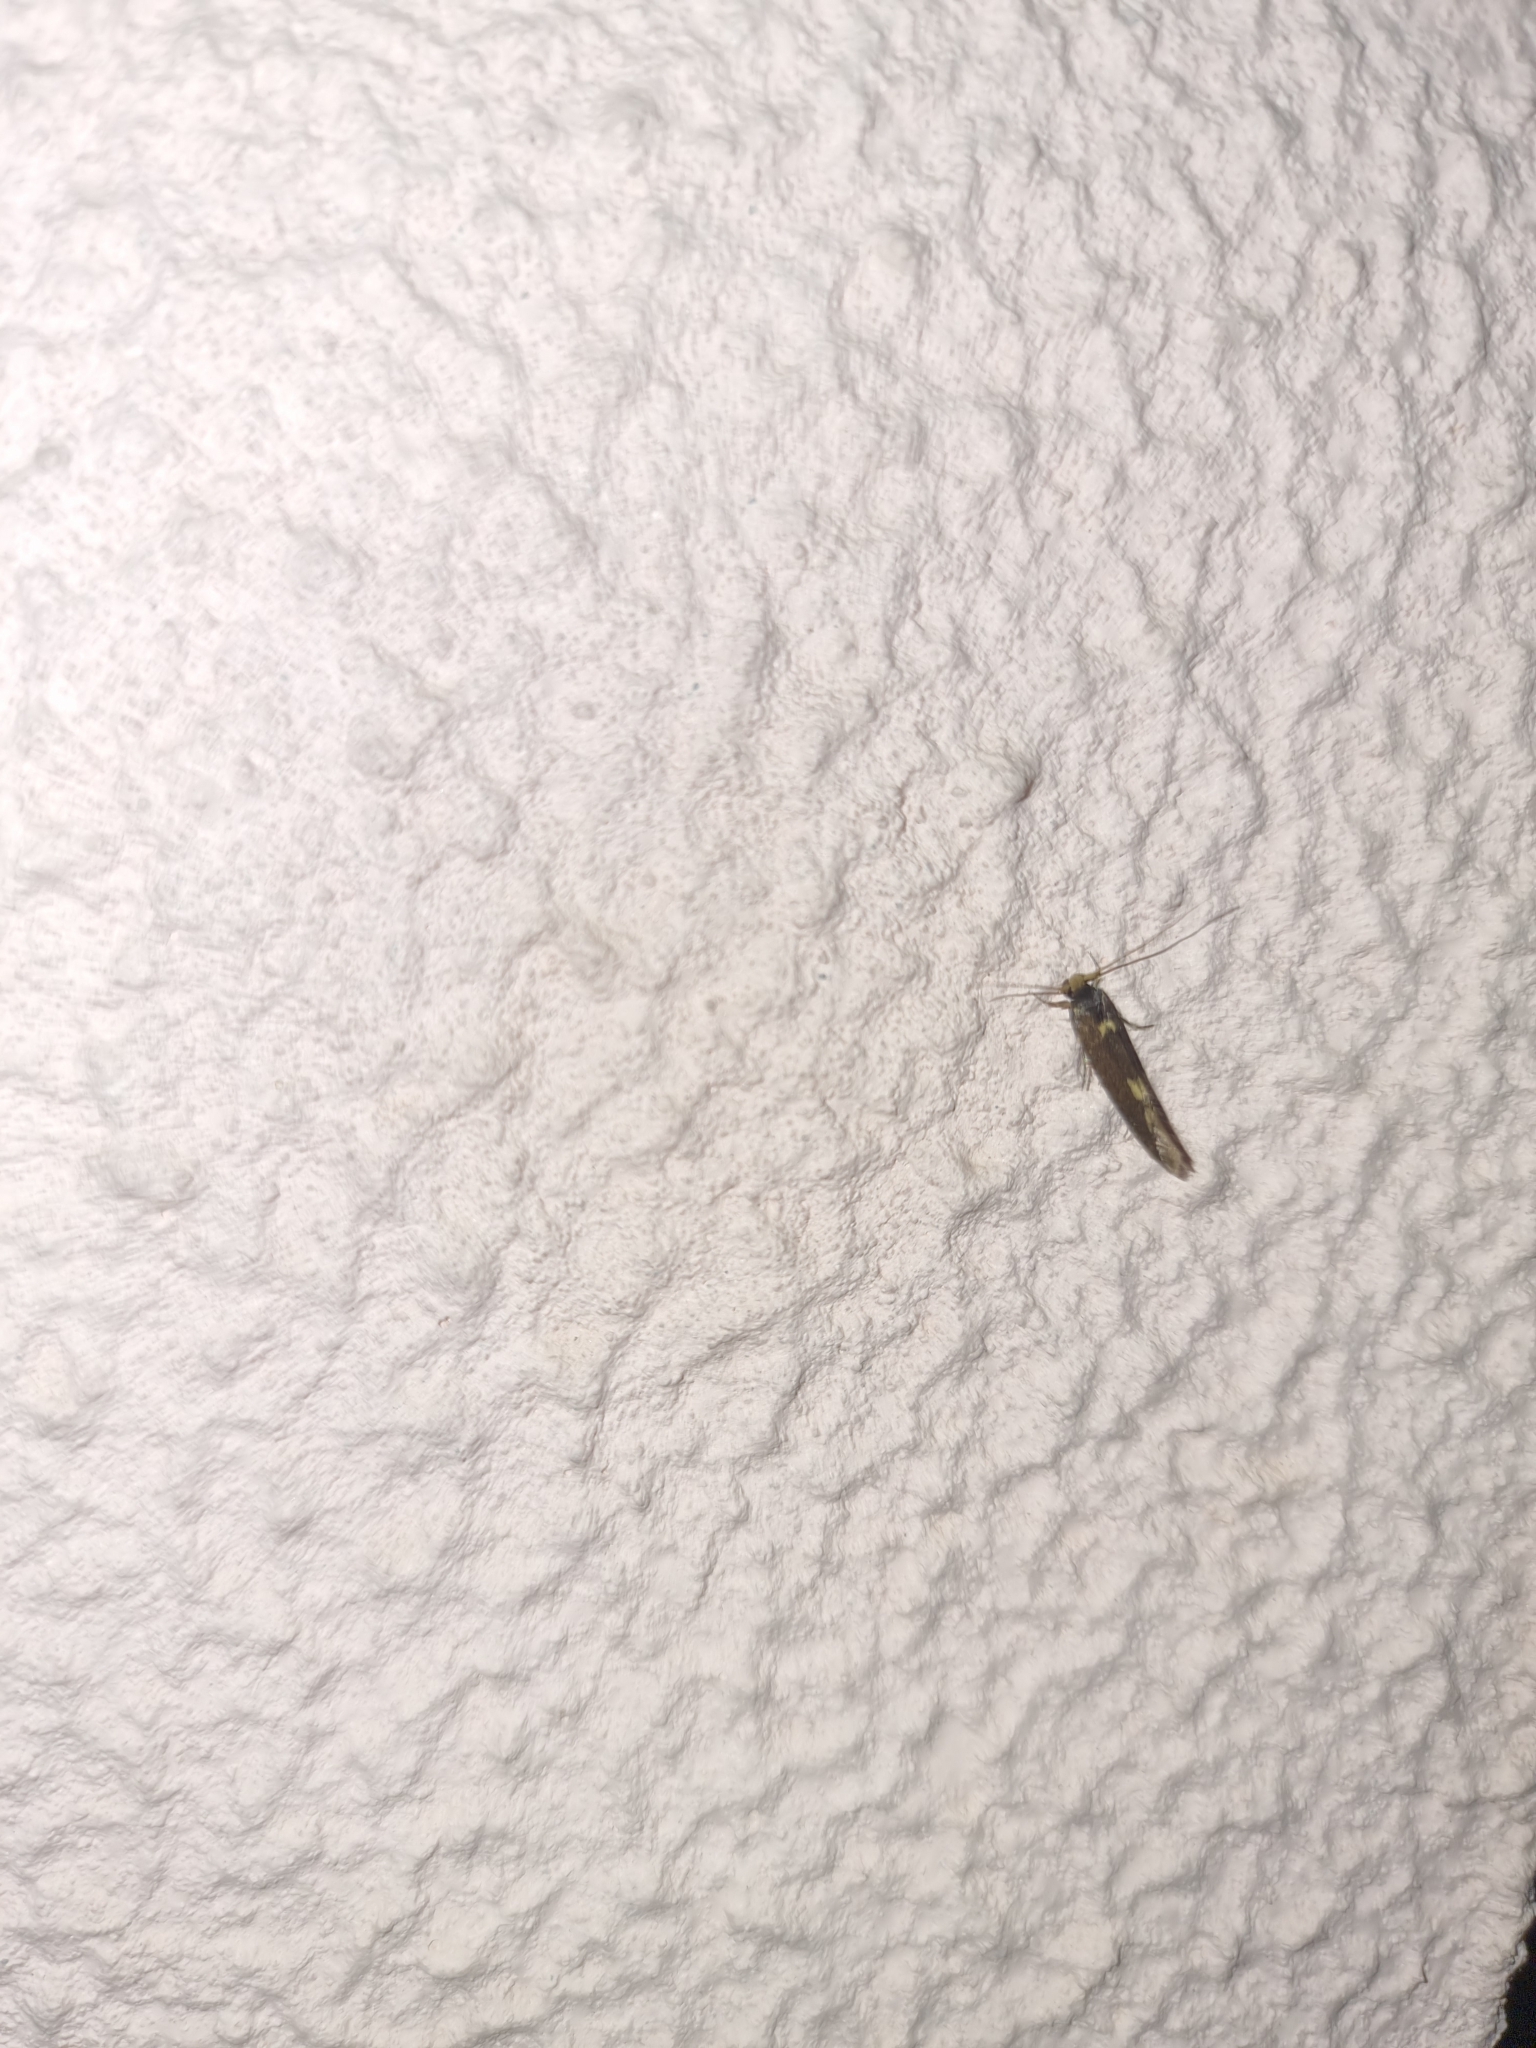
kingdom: Animalia
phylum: Arthropoda
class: Insecta
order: Lepidoptera
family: Tineidae
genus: Opogona
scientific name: Opogona omoscopa
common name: Moth
